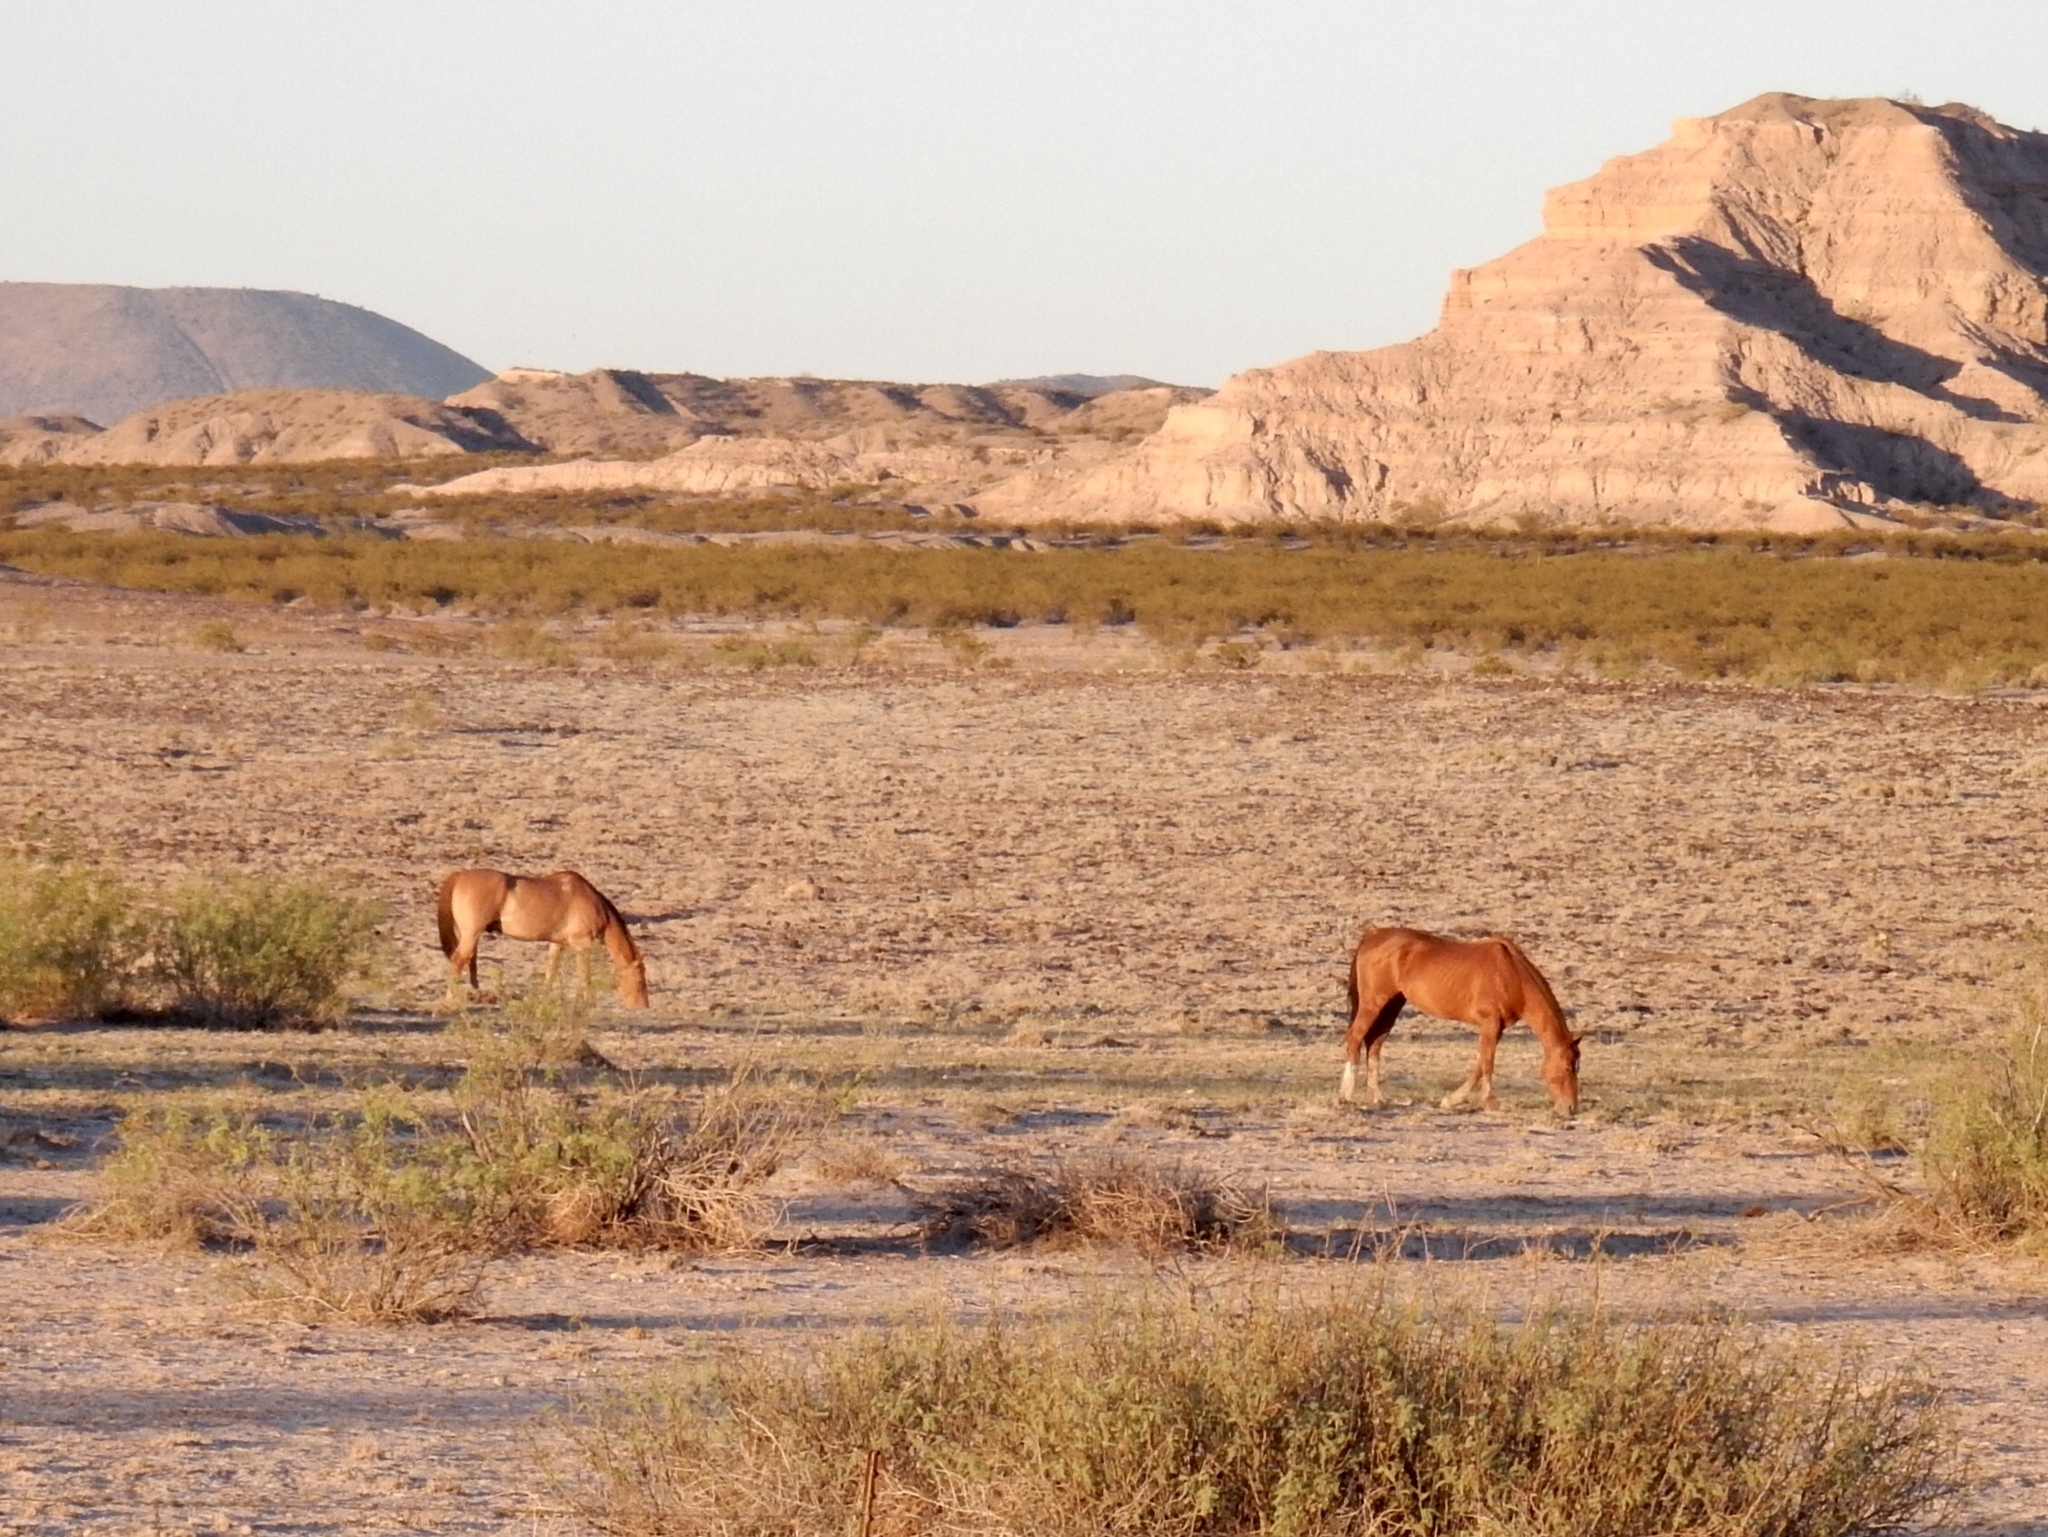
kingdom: Animalia
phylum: Chordata
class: Mammalia
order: Perissodactyla
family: Equidae
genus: Equus
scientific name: Equus caballus
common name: Horse
